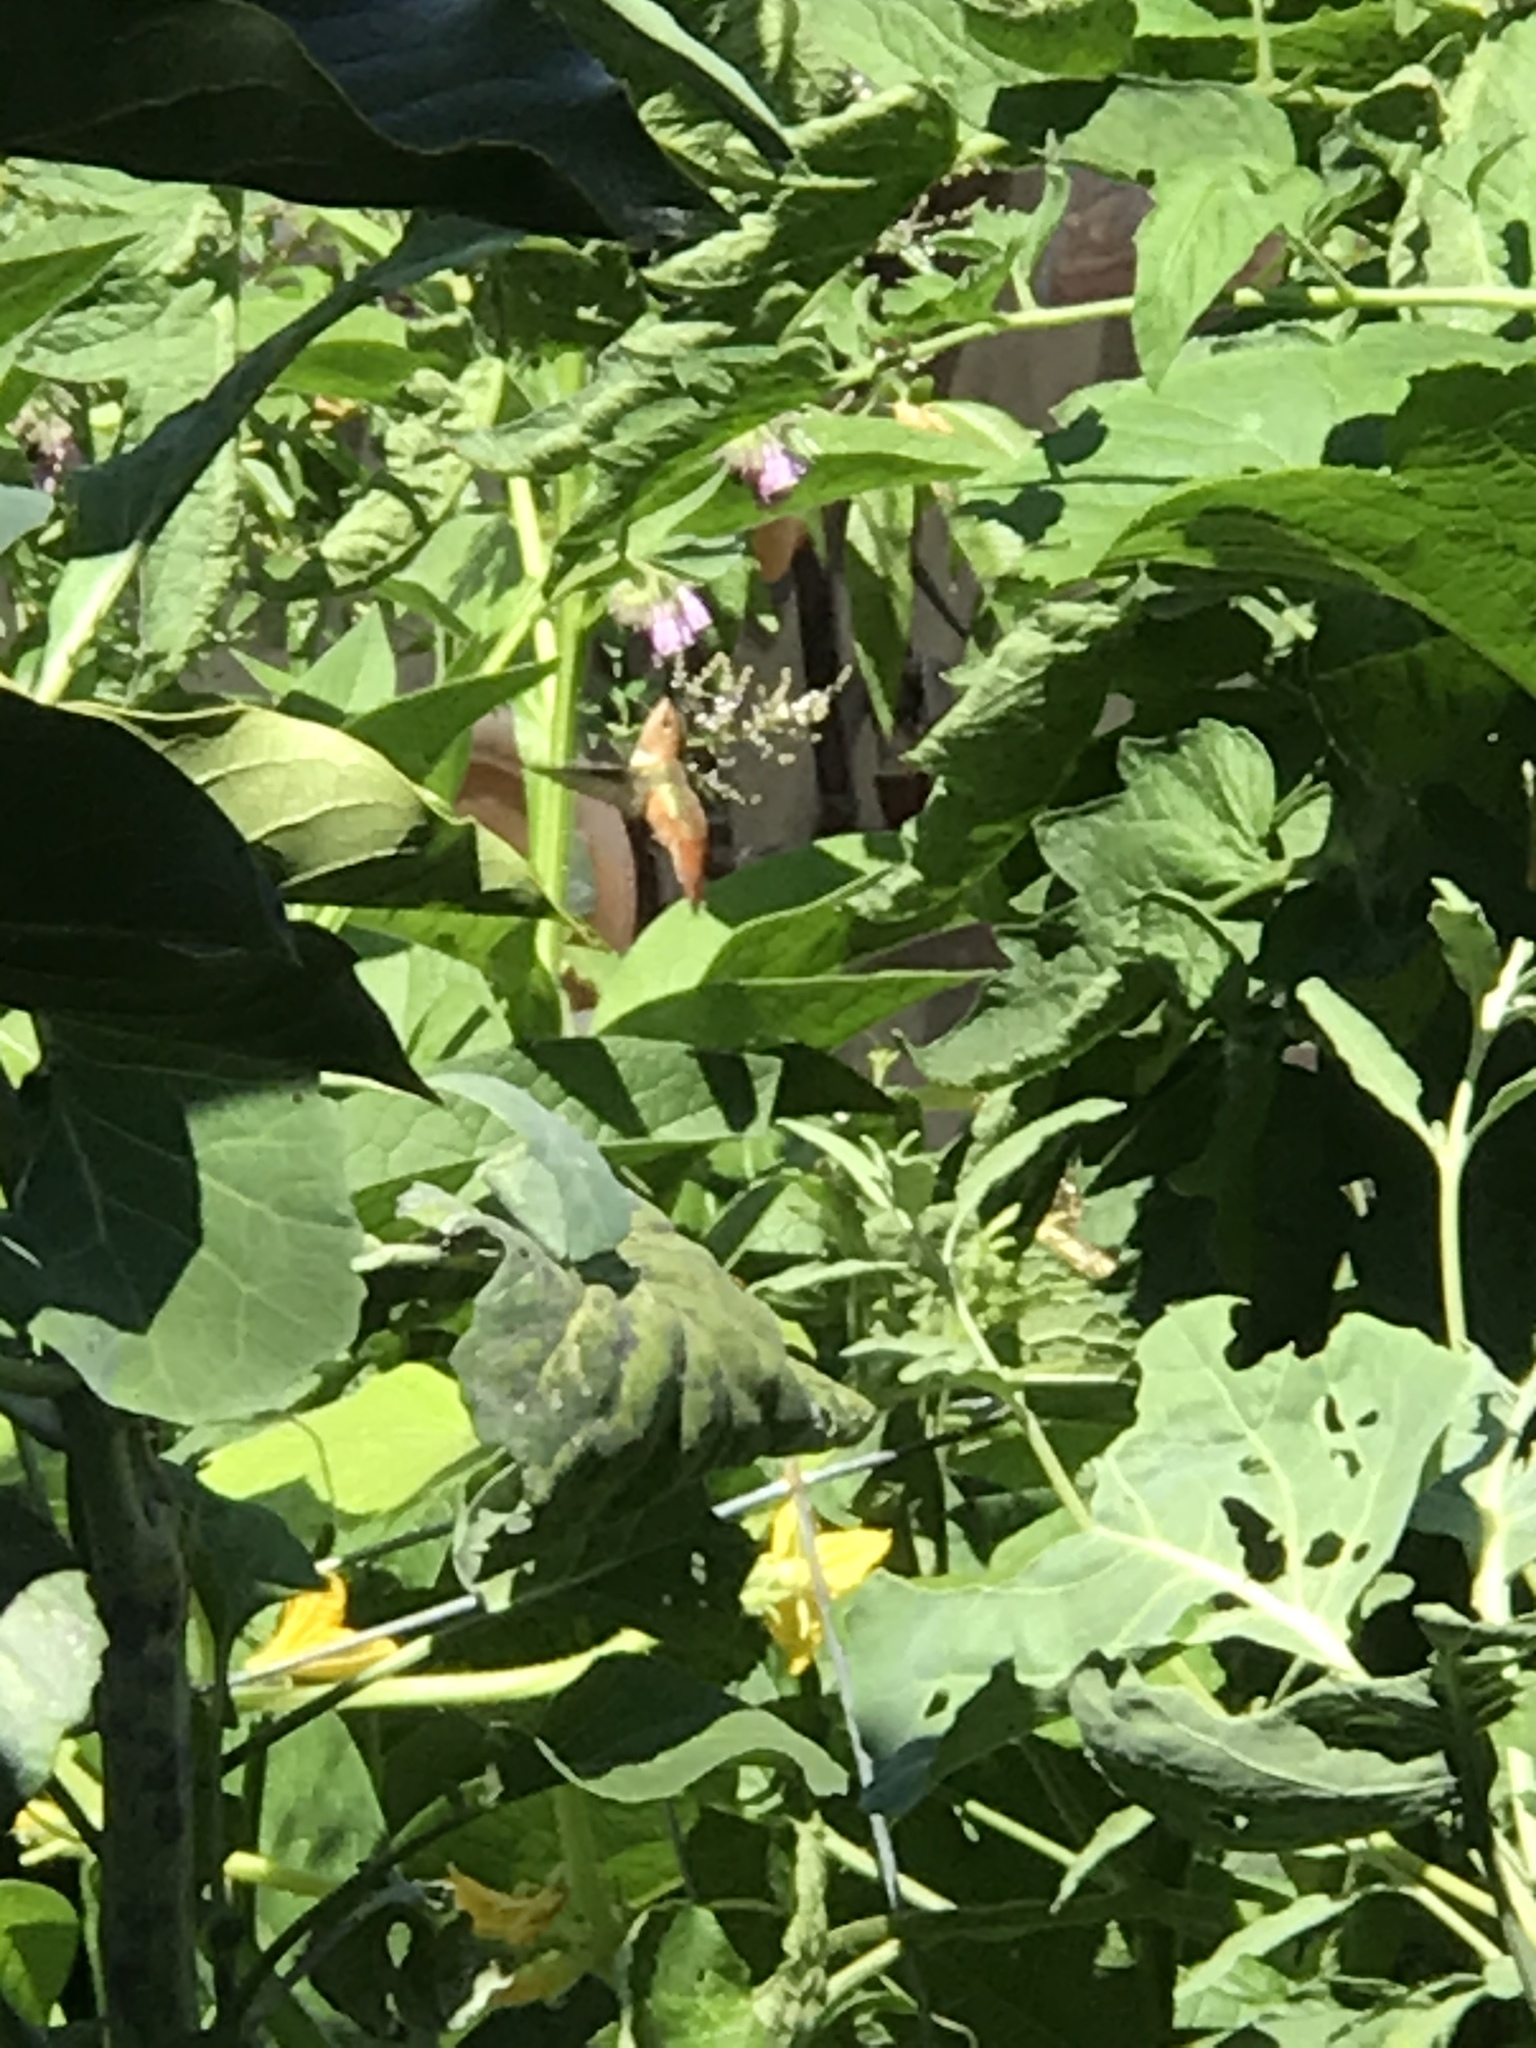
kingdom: Animalia
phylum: Chordata
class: Aves
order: Apodiformes
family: Trochilidae
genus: Selasphorus
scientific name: Selasphorus
